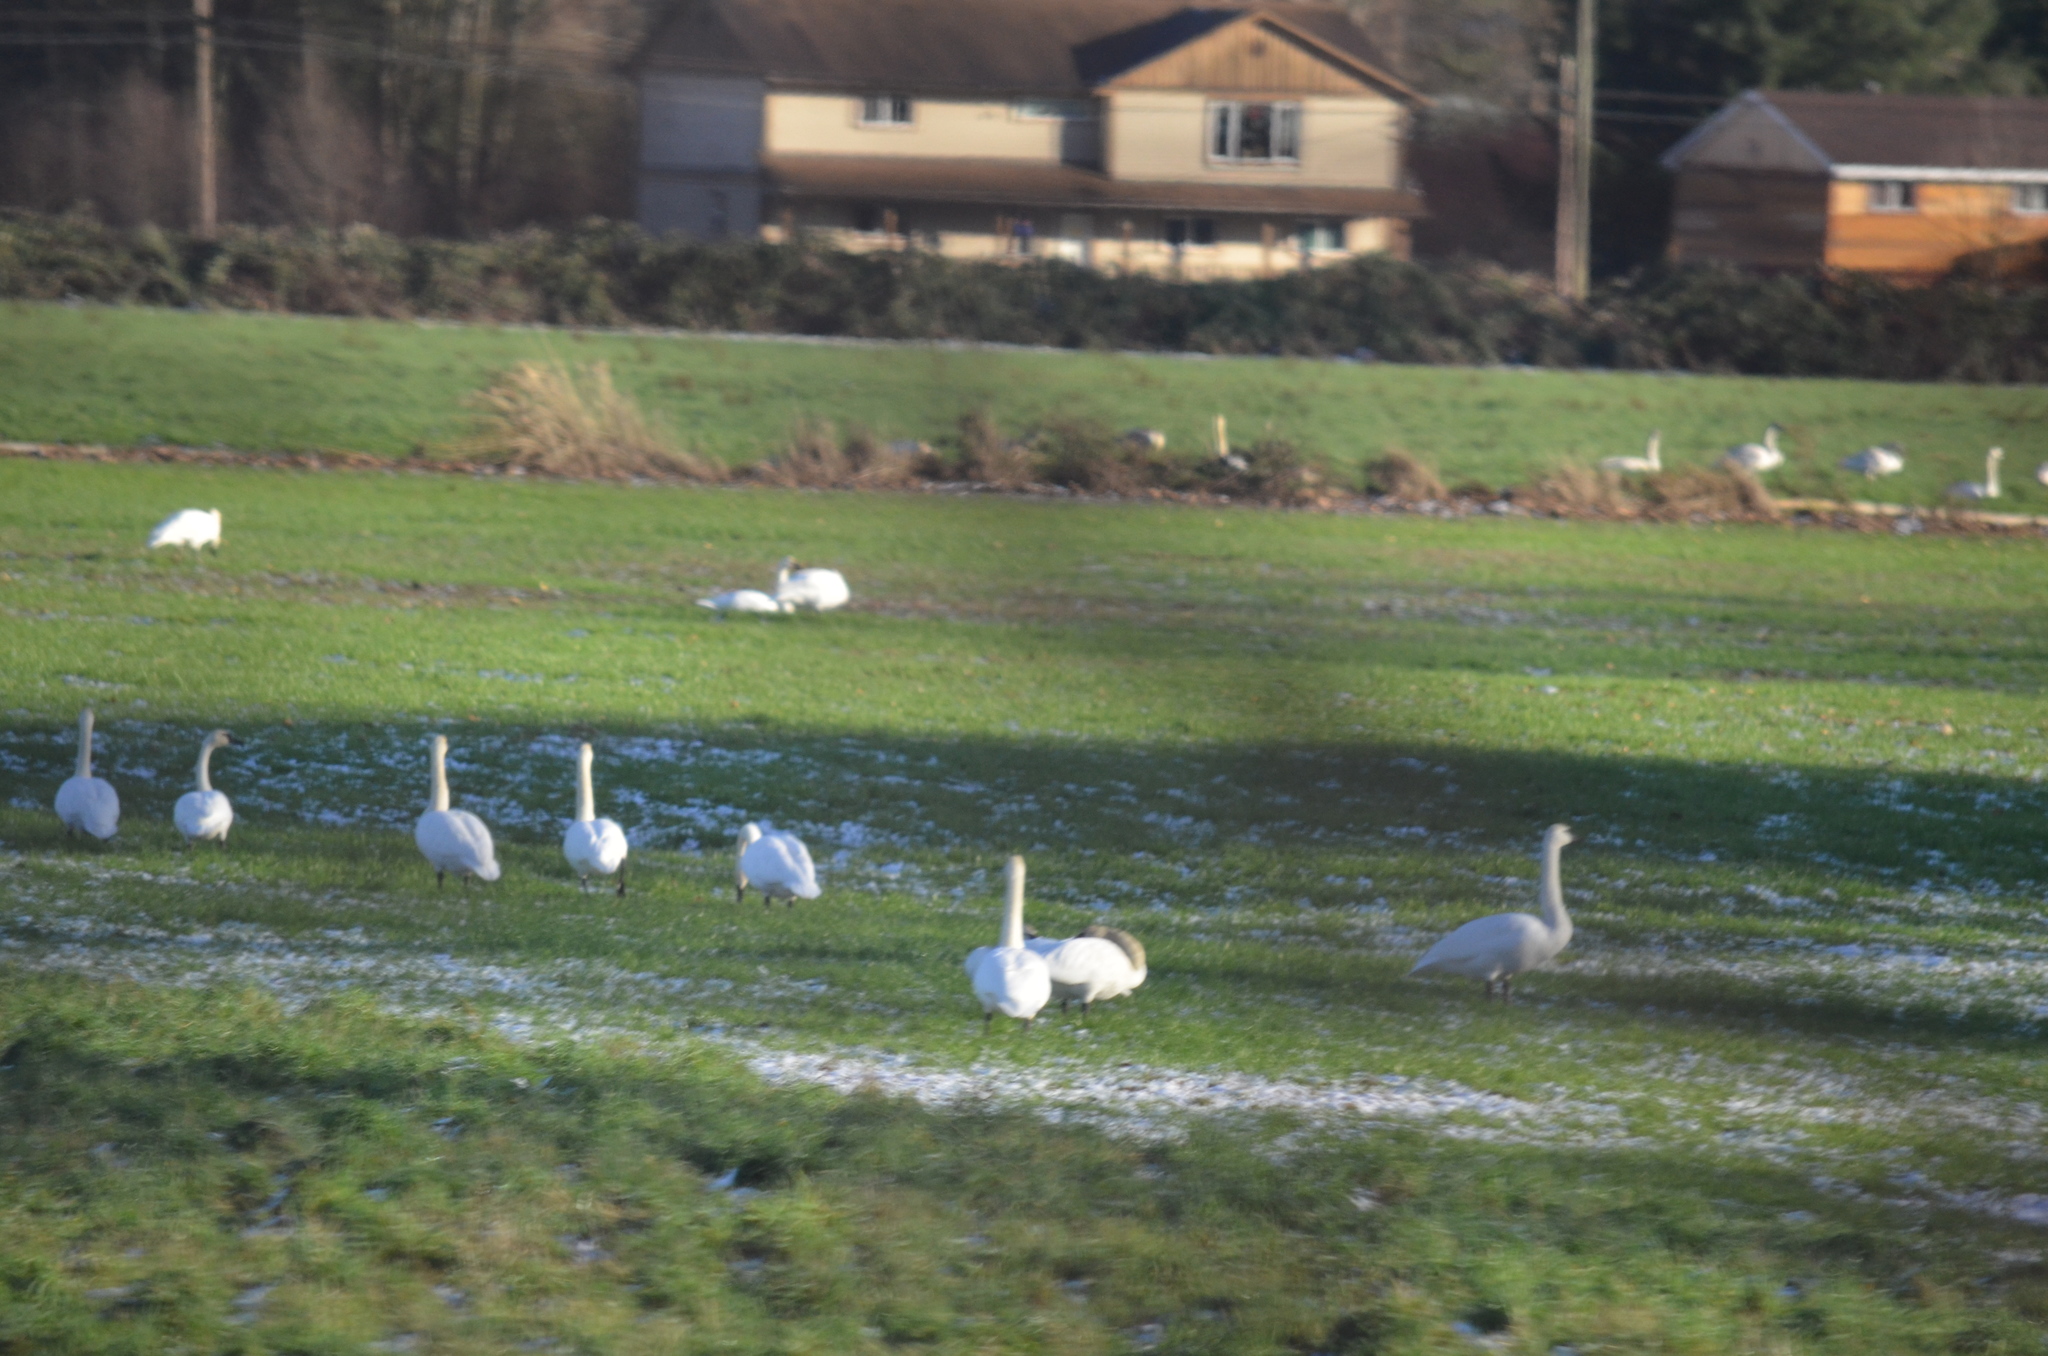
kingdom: Animalia
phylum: Chordata
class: Aves
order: Anseriformes
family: Anatidae
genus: Cygnus
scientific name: Cygnus buccinator
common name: Trumpeter swan
